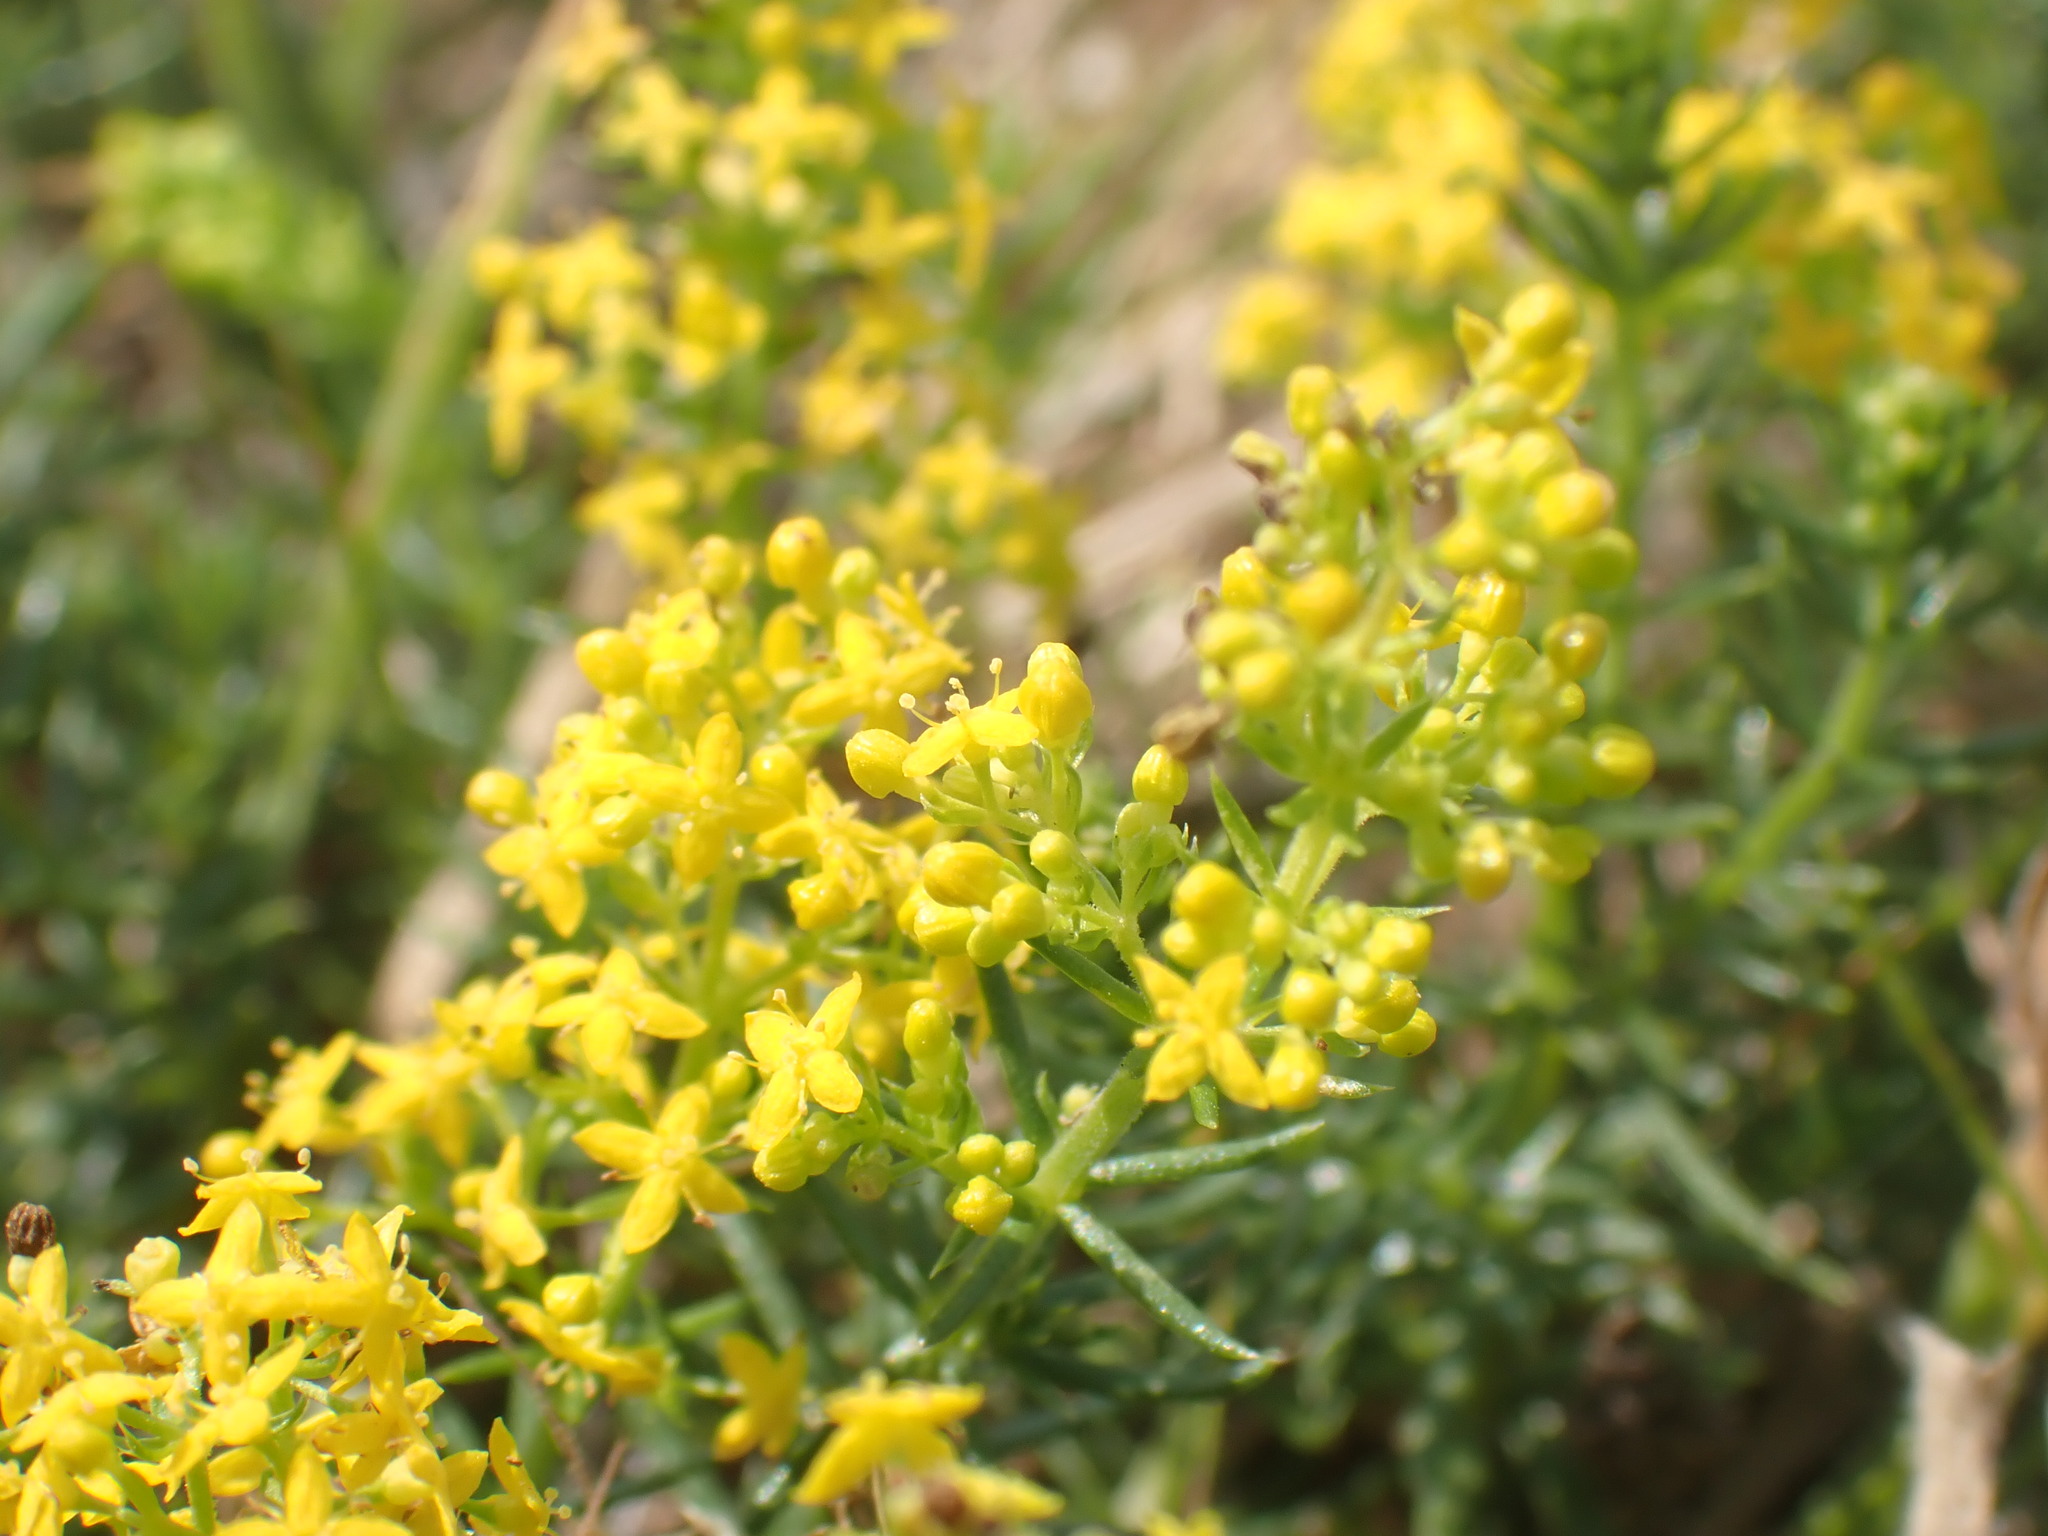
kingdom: Plantae
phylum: Tracheophyta
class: Magnoliopsida
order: Gentianales
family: Rubiaceae
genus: Galium
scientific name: Galium verum
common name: Lady's bedstraw
